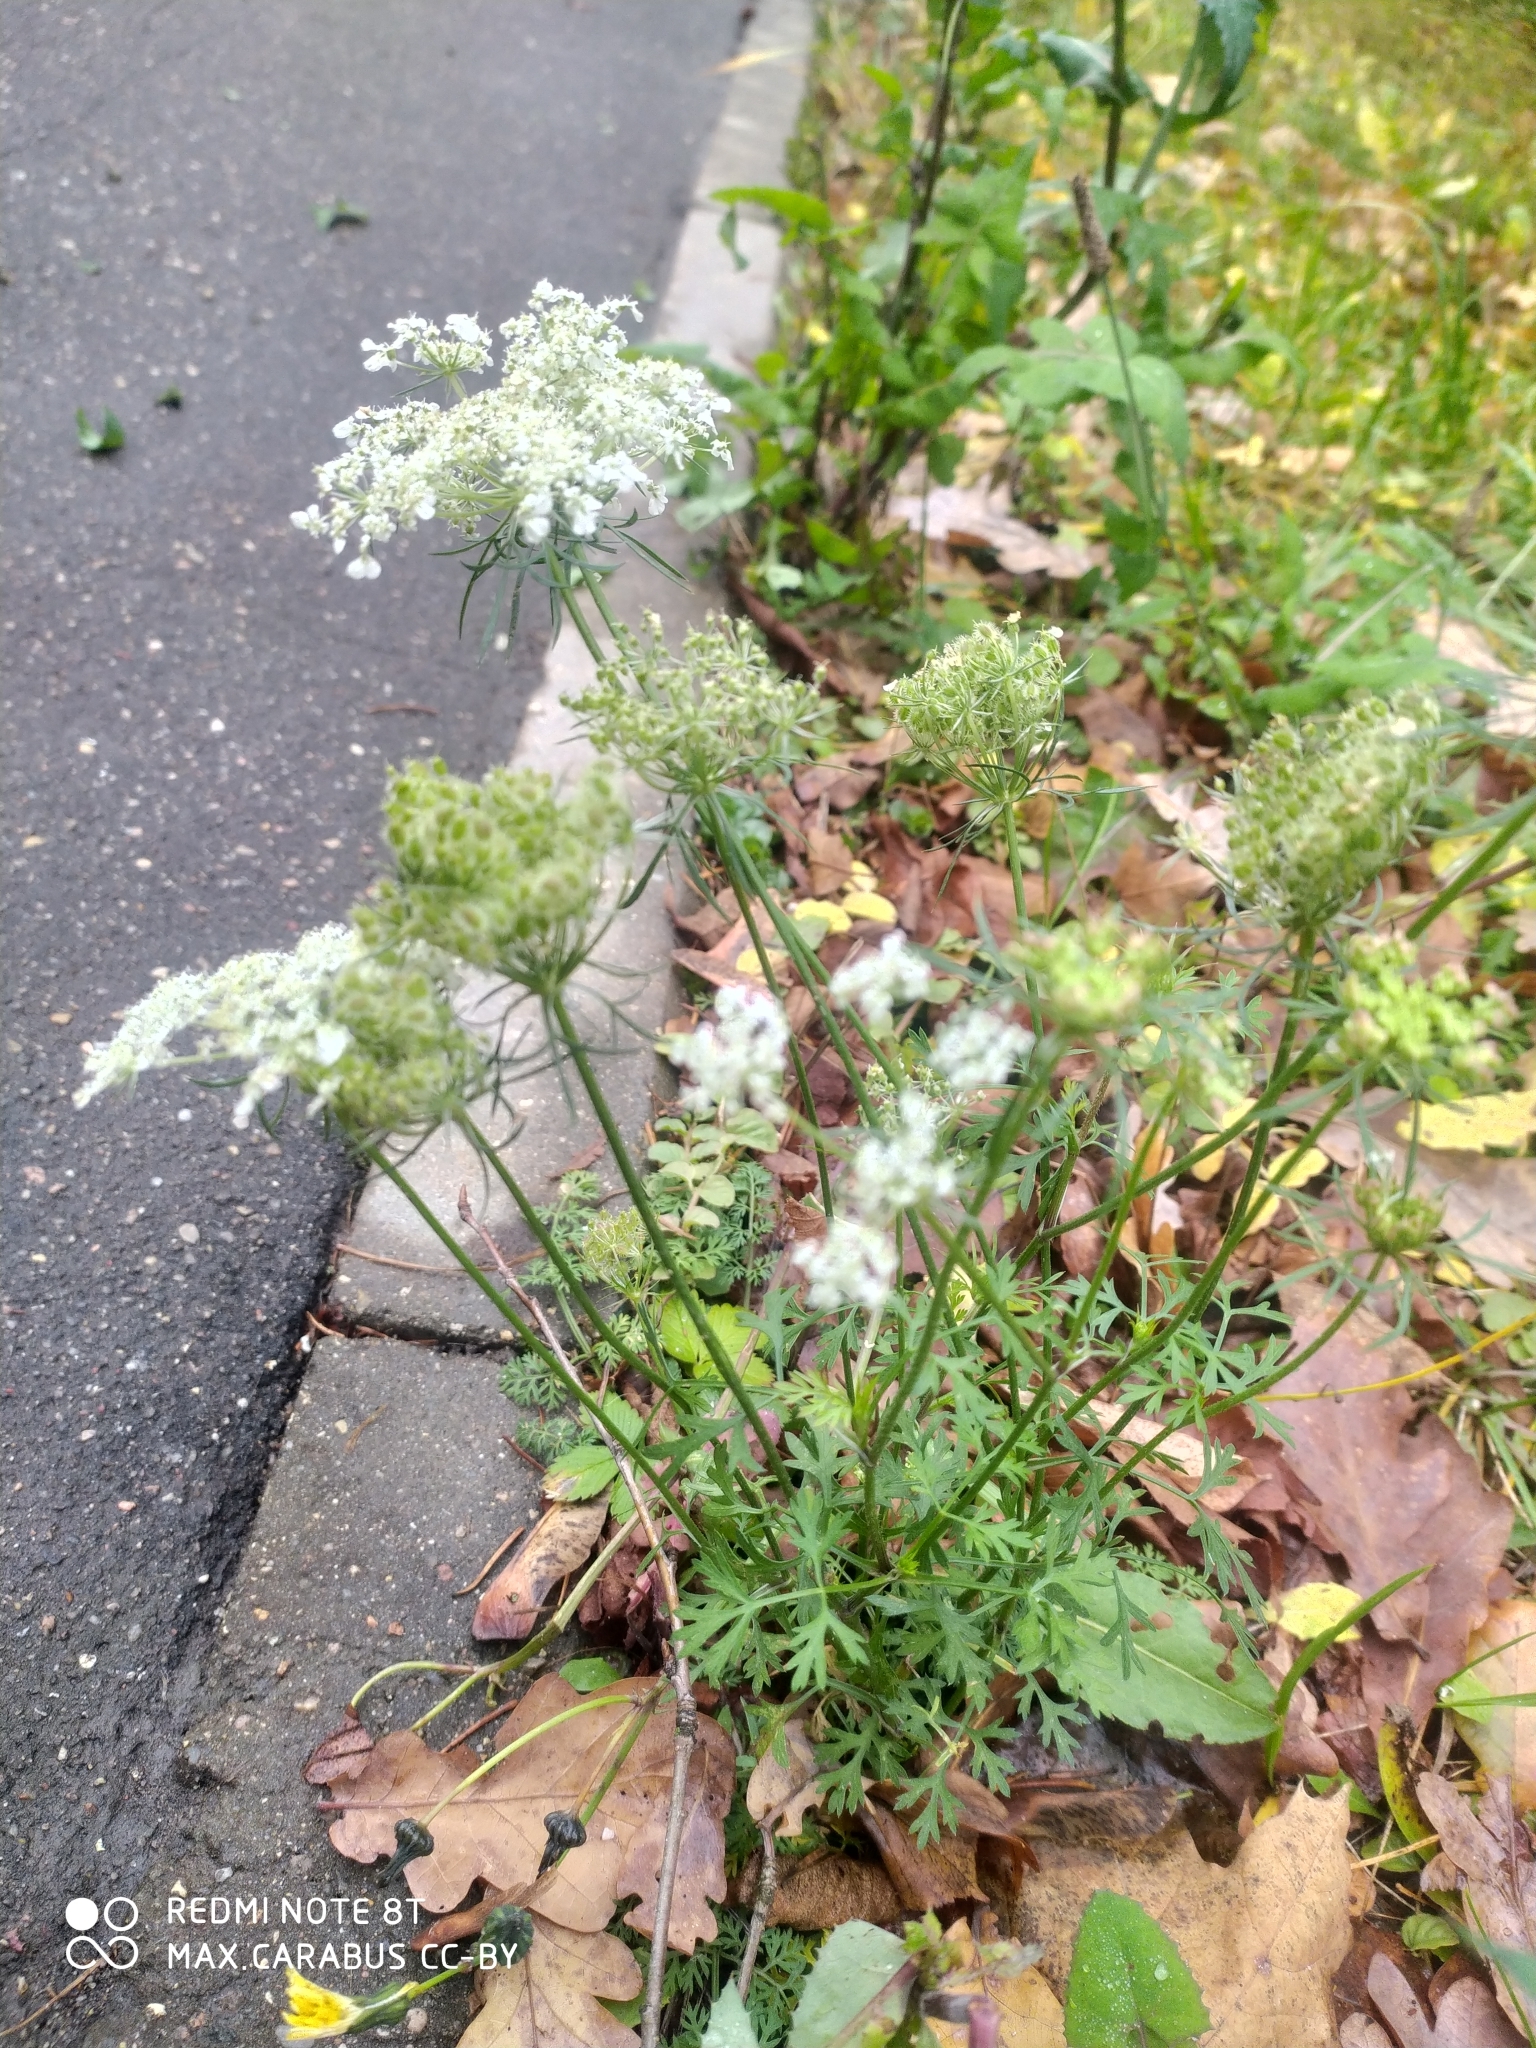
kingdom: Plantae
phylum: Tracheophyta
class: Magnoliopsida
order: Apiales
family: Apiaceae
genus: Daucus
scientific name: Daucus carota
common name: Wild carrot
